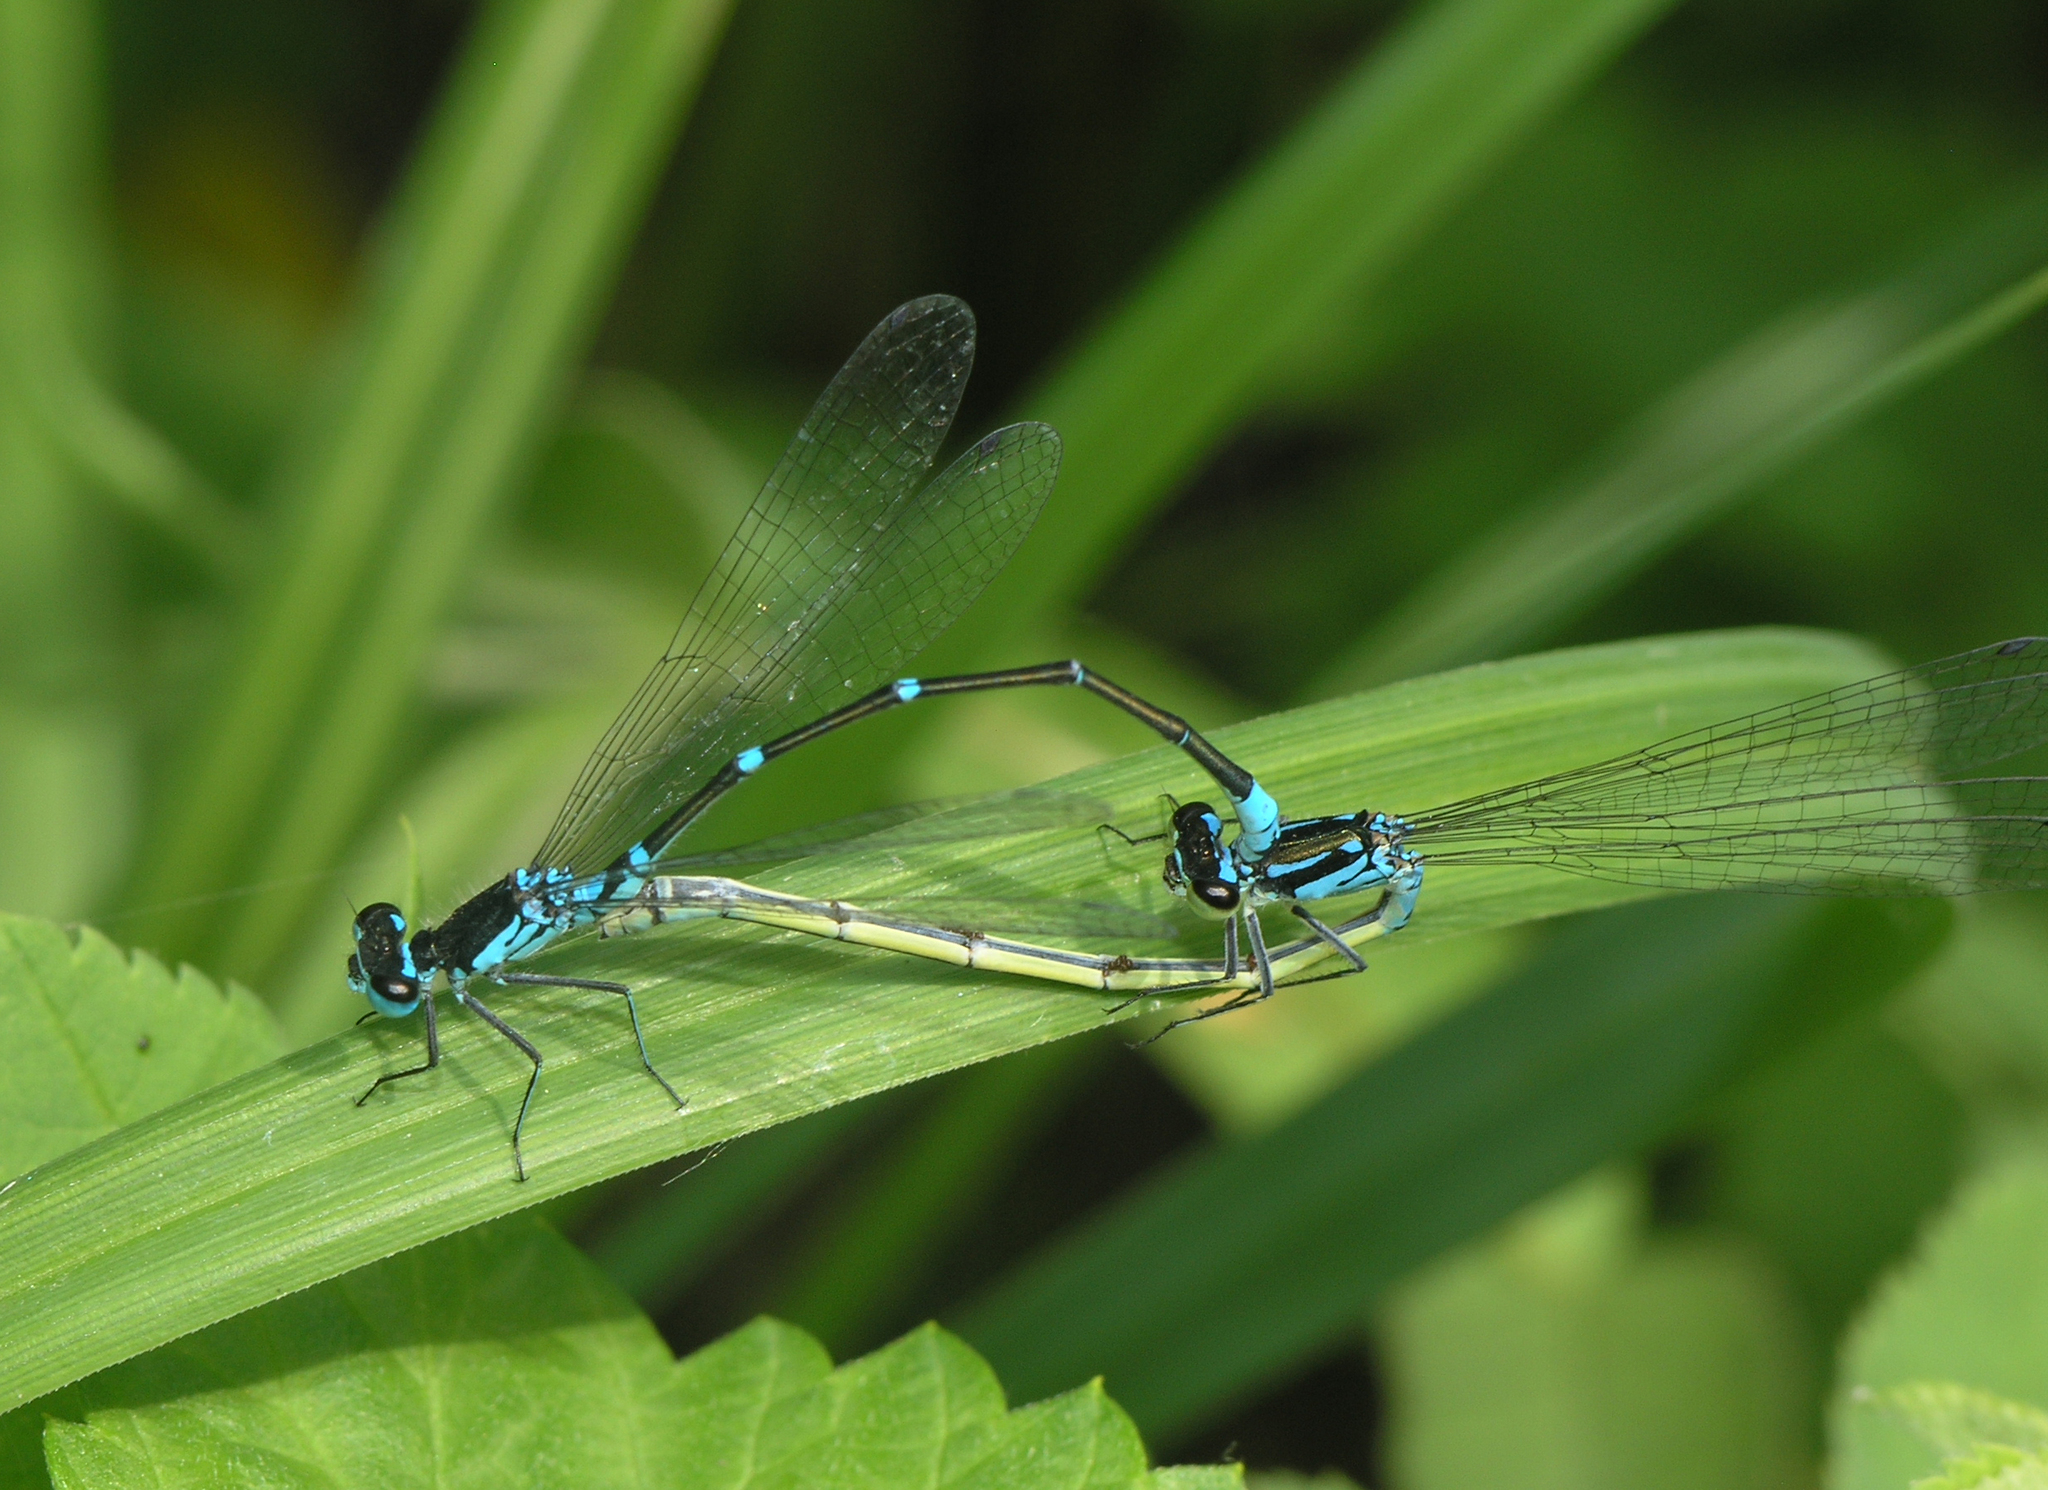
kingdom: Animalia
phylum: Arthropoda
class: Insecta
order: Odonata
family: Coenagrionidae
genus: Coenagrion
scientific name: Coenagrion pulchellum
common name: Variable bluet
